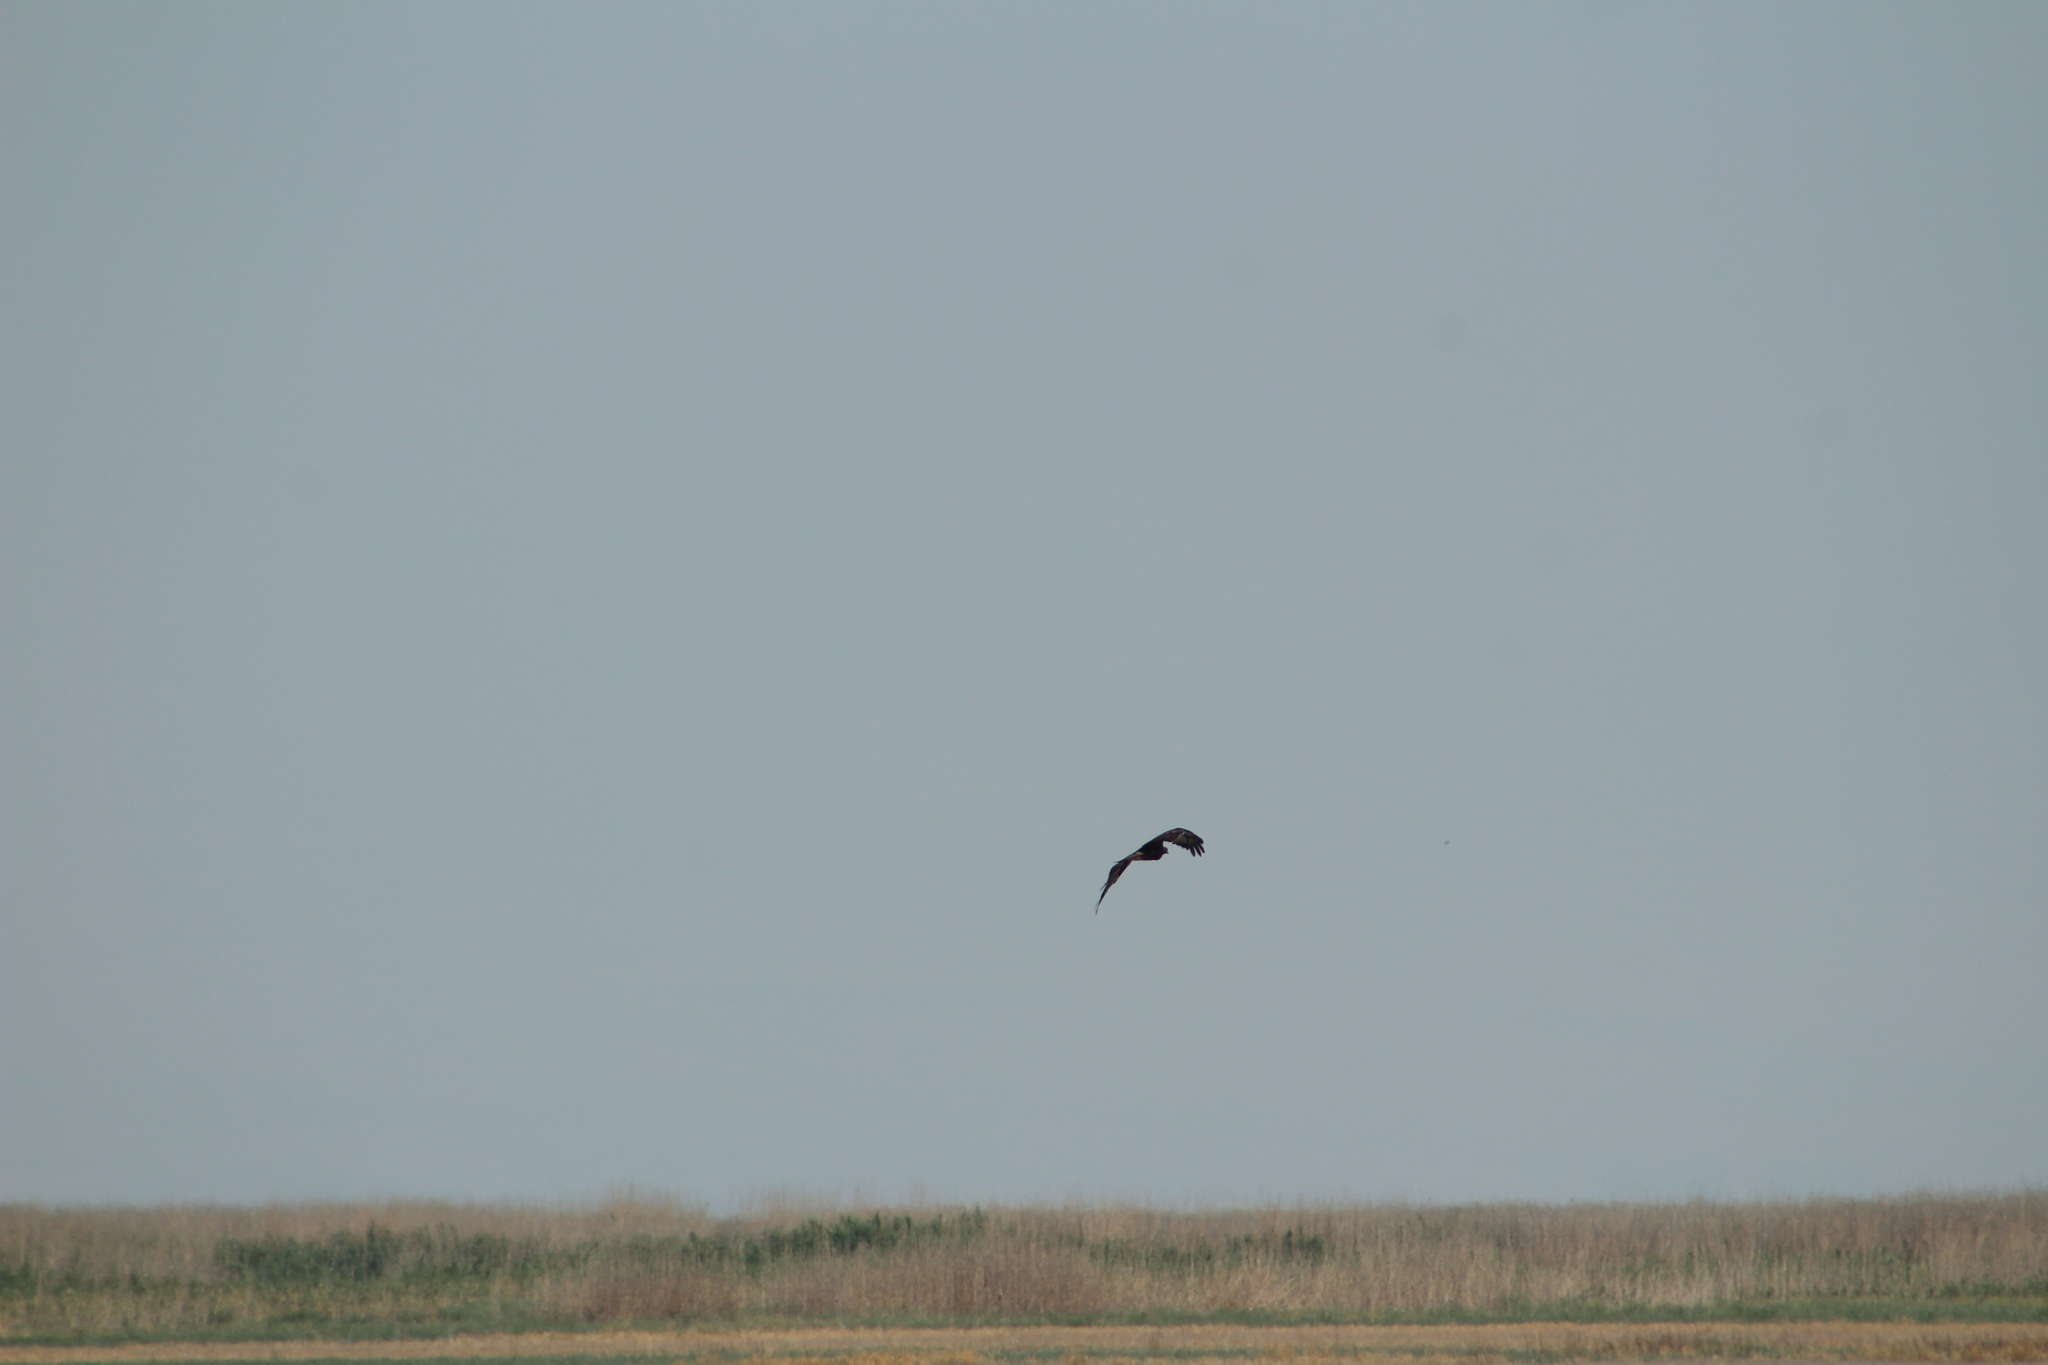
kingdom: Animalia
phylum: Chordata
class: Aves
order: Accipitriformes
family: Accipitridae
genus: Aquila
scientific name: Aquila chrysaetos
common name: Golden eagle
